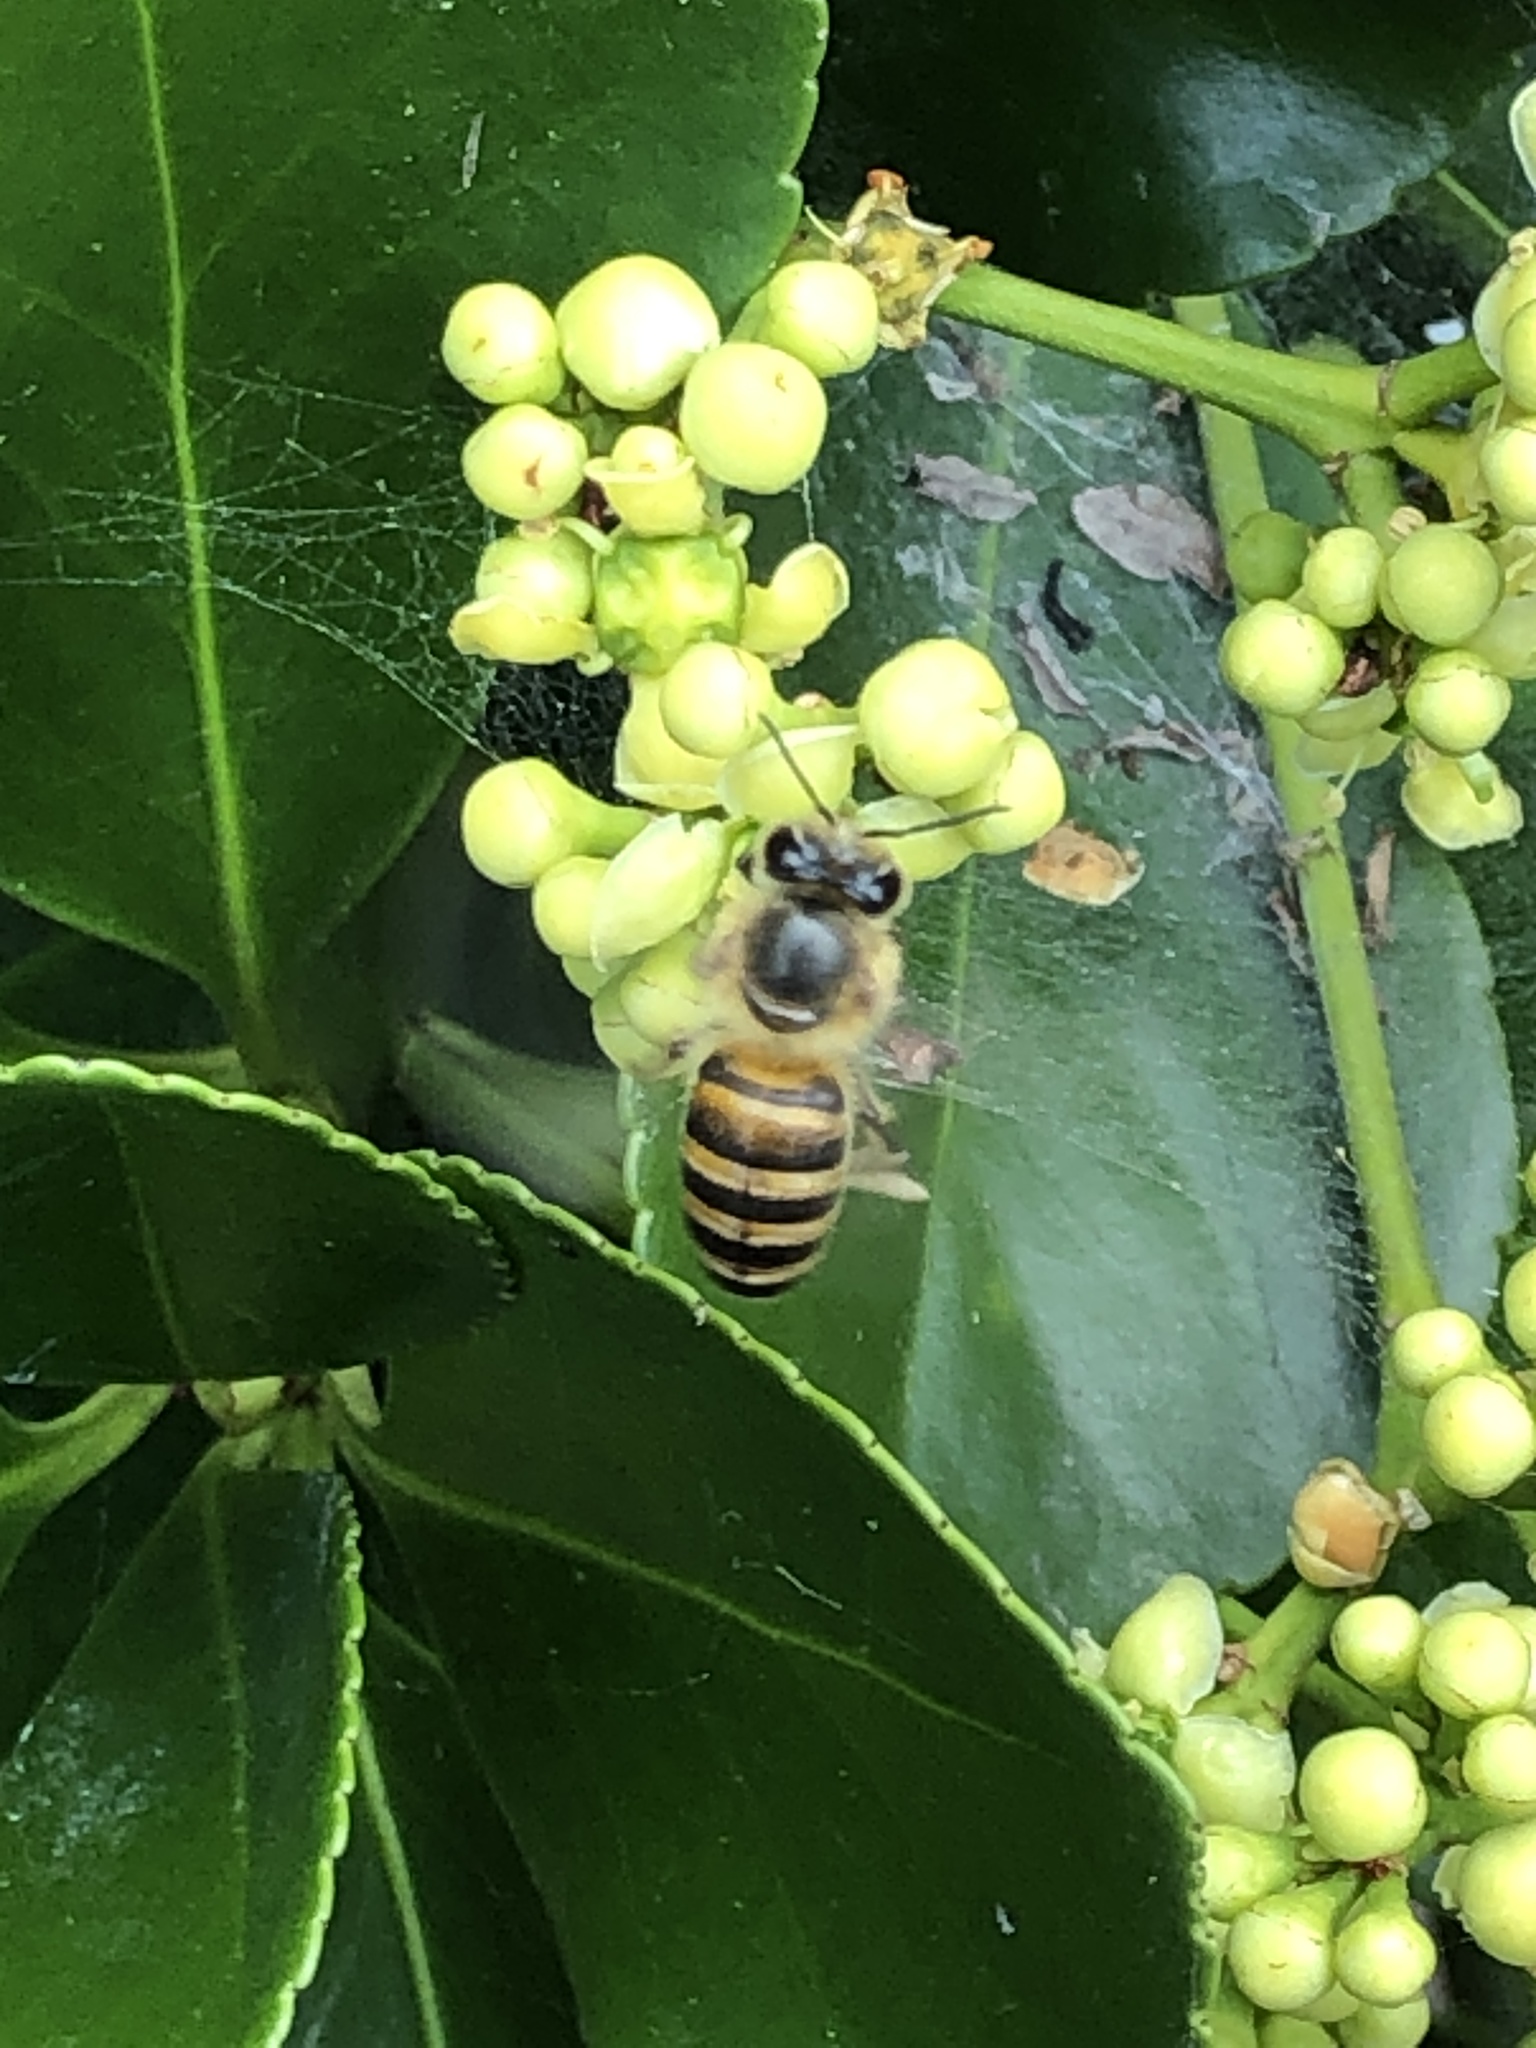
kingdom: Animalia
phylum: Arthropoda
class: Insecta
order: Hymenoptera
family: Apidae
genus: Apis
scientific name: Apis cerana
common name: Honey bee
